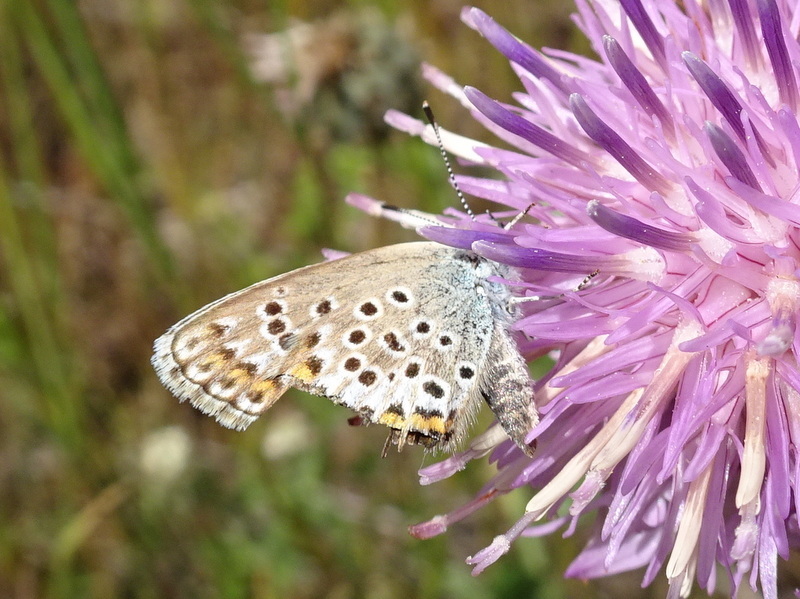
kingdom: Animalia
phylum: Arthropoda
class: Insecta
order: Lepidoptera
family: Lycaenidae
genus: Plebejus
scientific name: Plebejus argus
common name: Silver-studded blue
